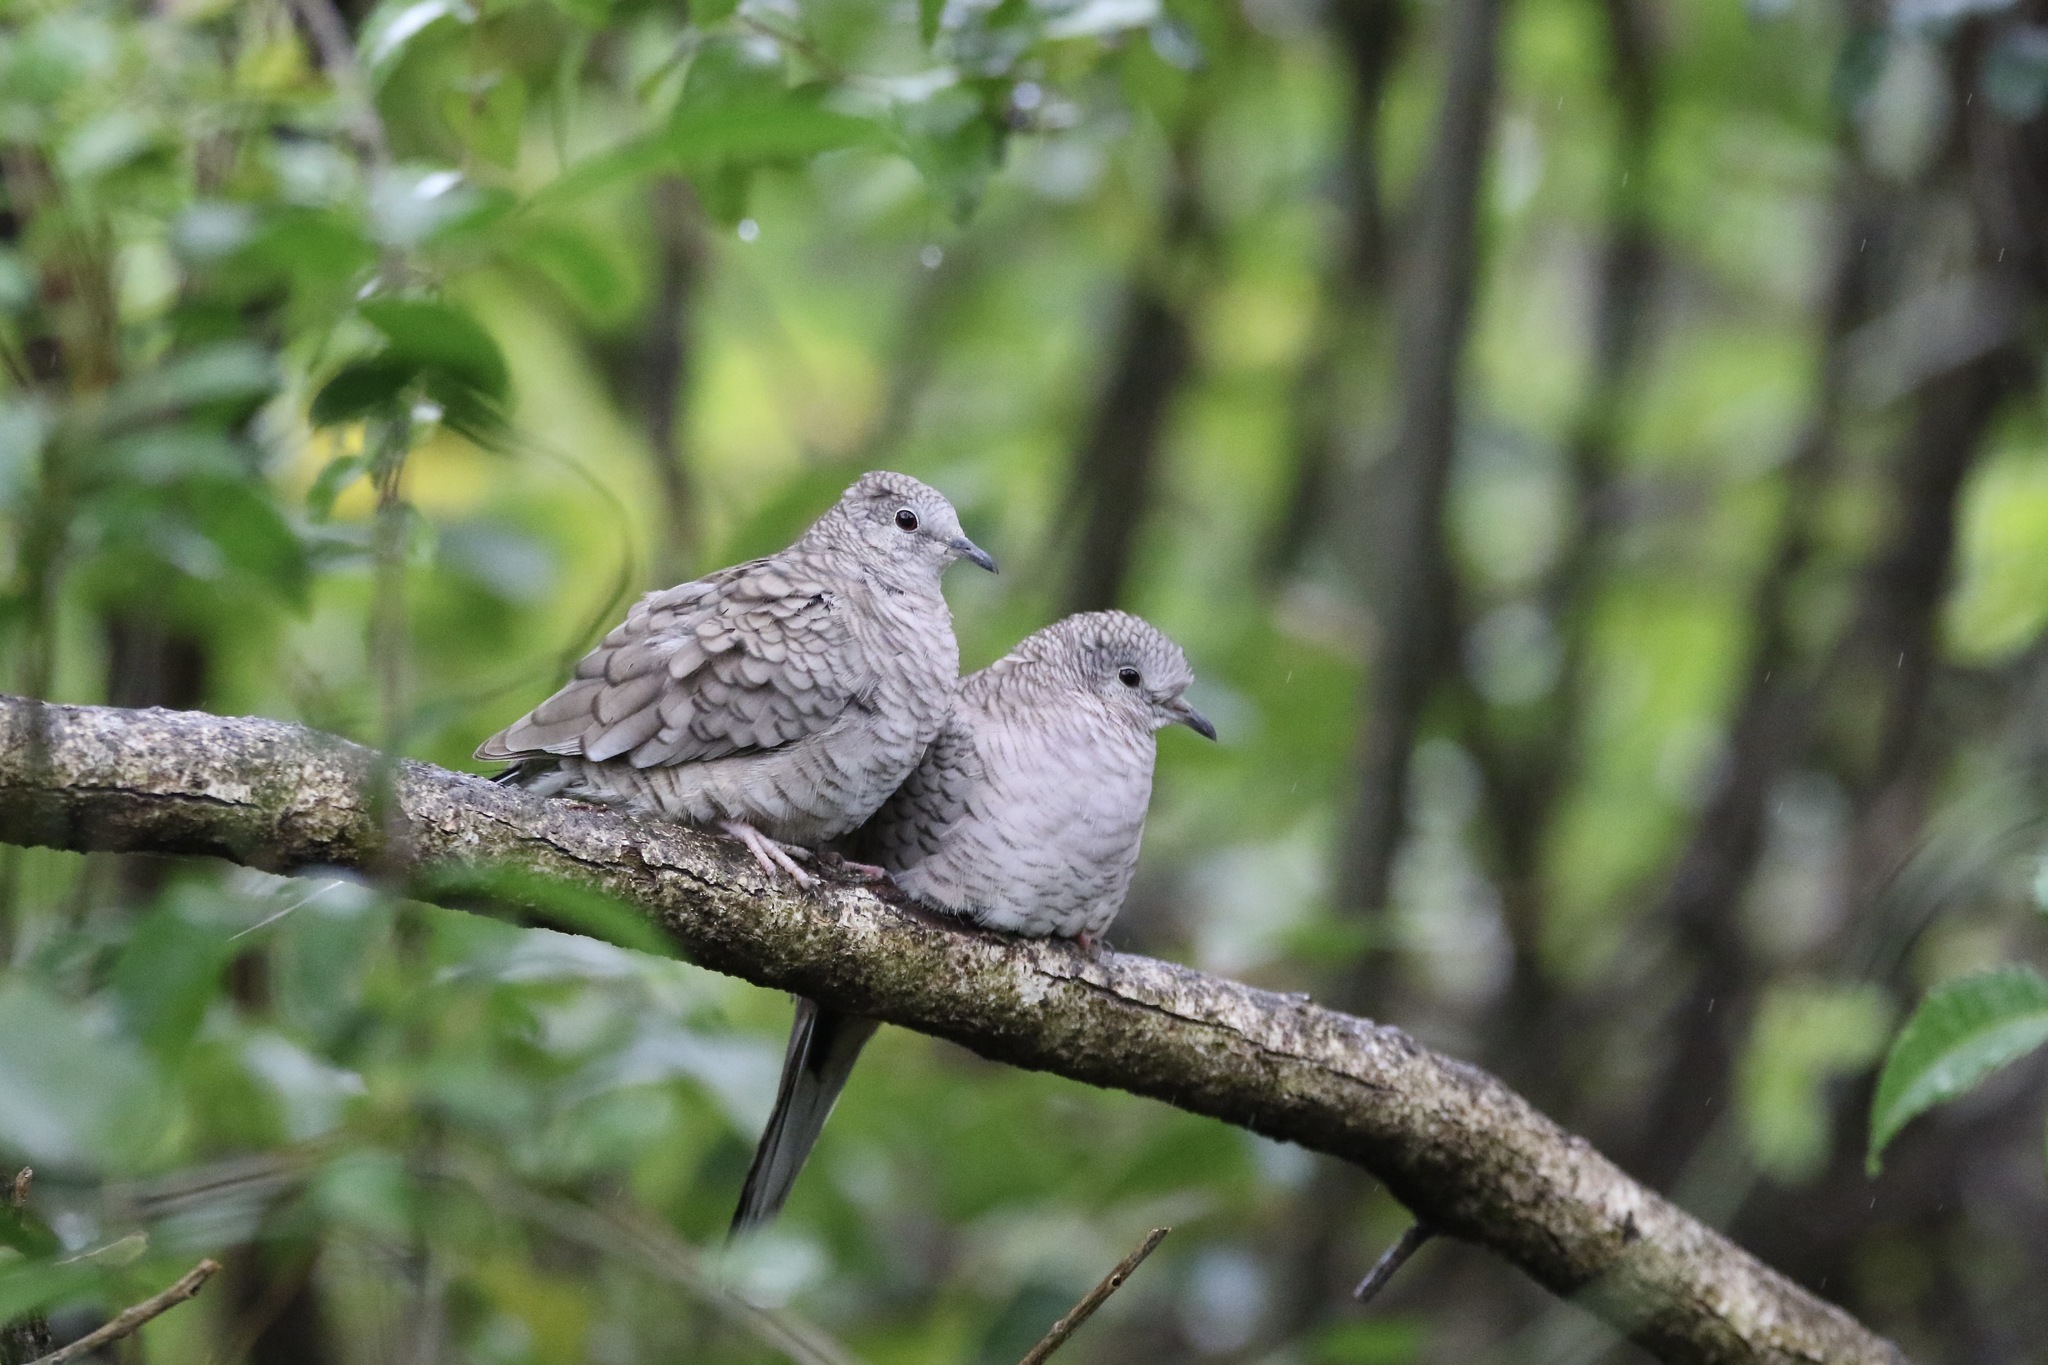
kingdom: Animalia
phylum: Chordata
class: Aves
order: Columbiformes
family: Columbidae
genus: Columbina
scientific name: Columbina inca
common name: Inca dove
